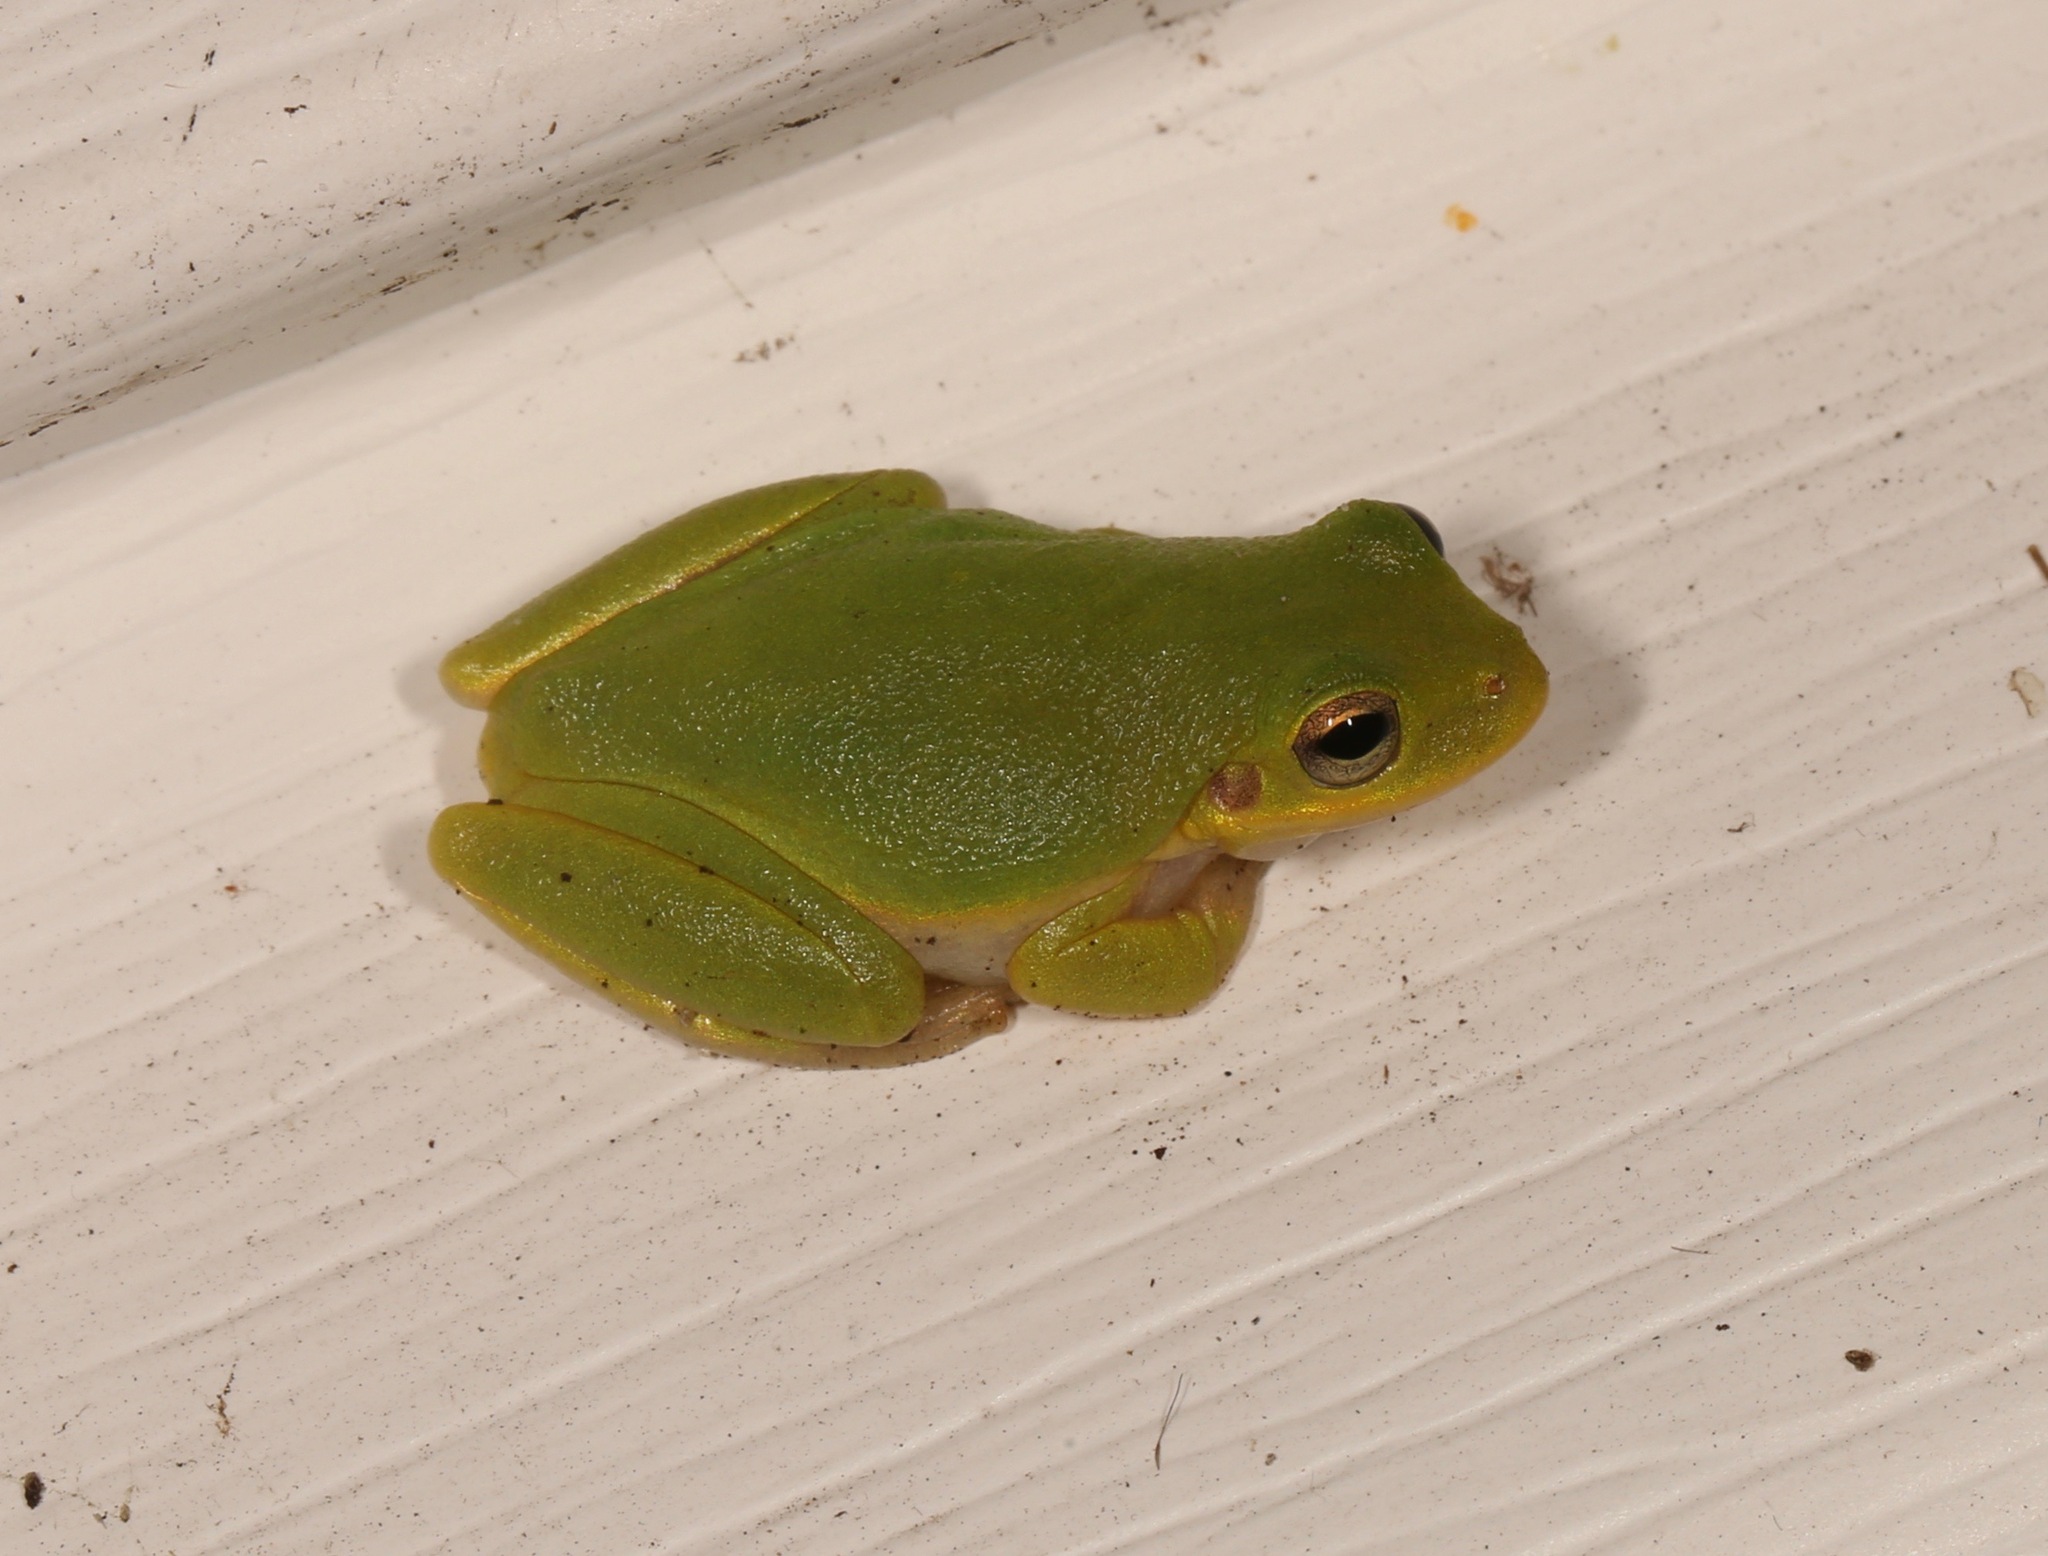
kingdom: Animalia
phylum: Chordata
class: Amphibia
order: Anura
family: Hylidae
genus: Dryophytes
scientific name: Dryophytes squirellus
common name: Squirrel treefrog
